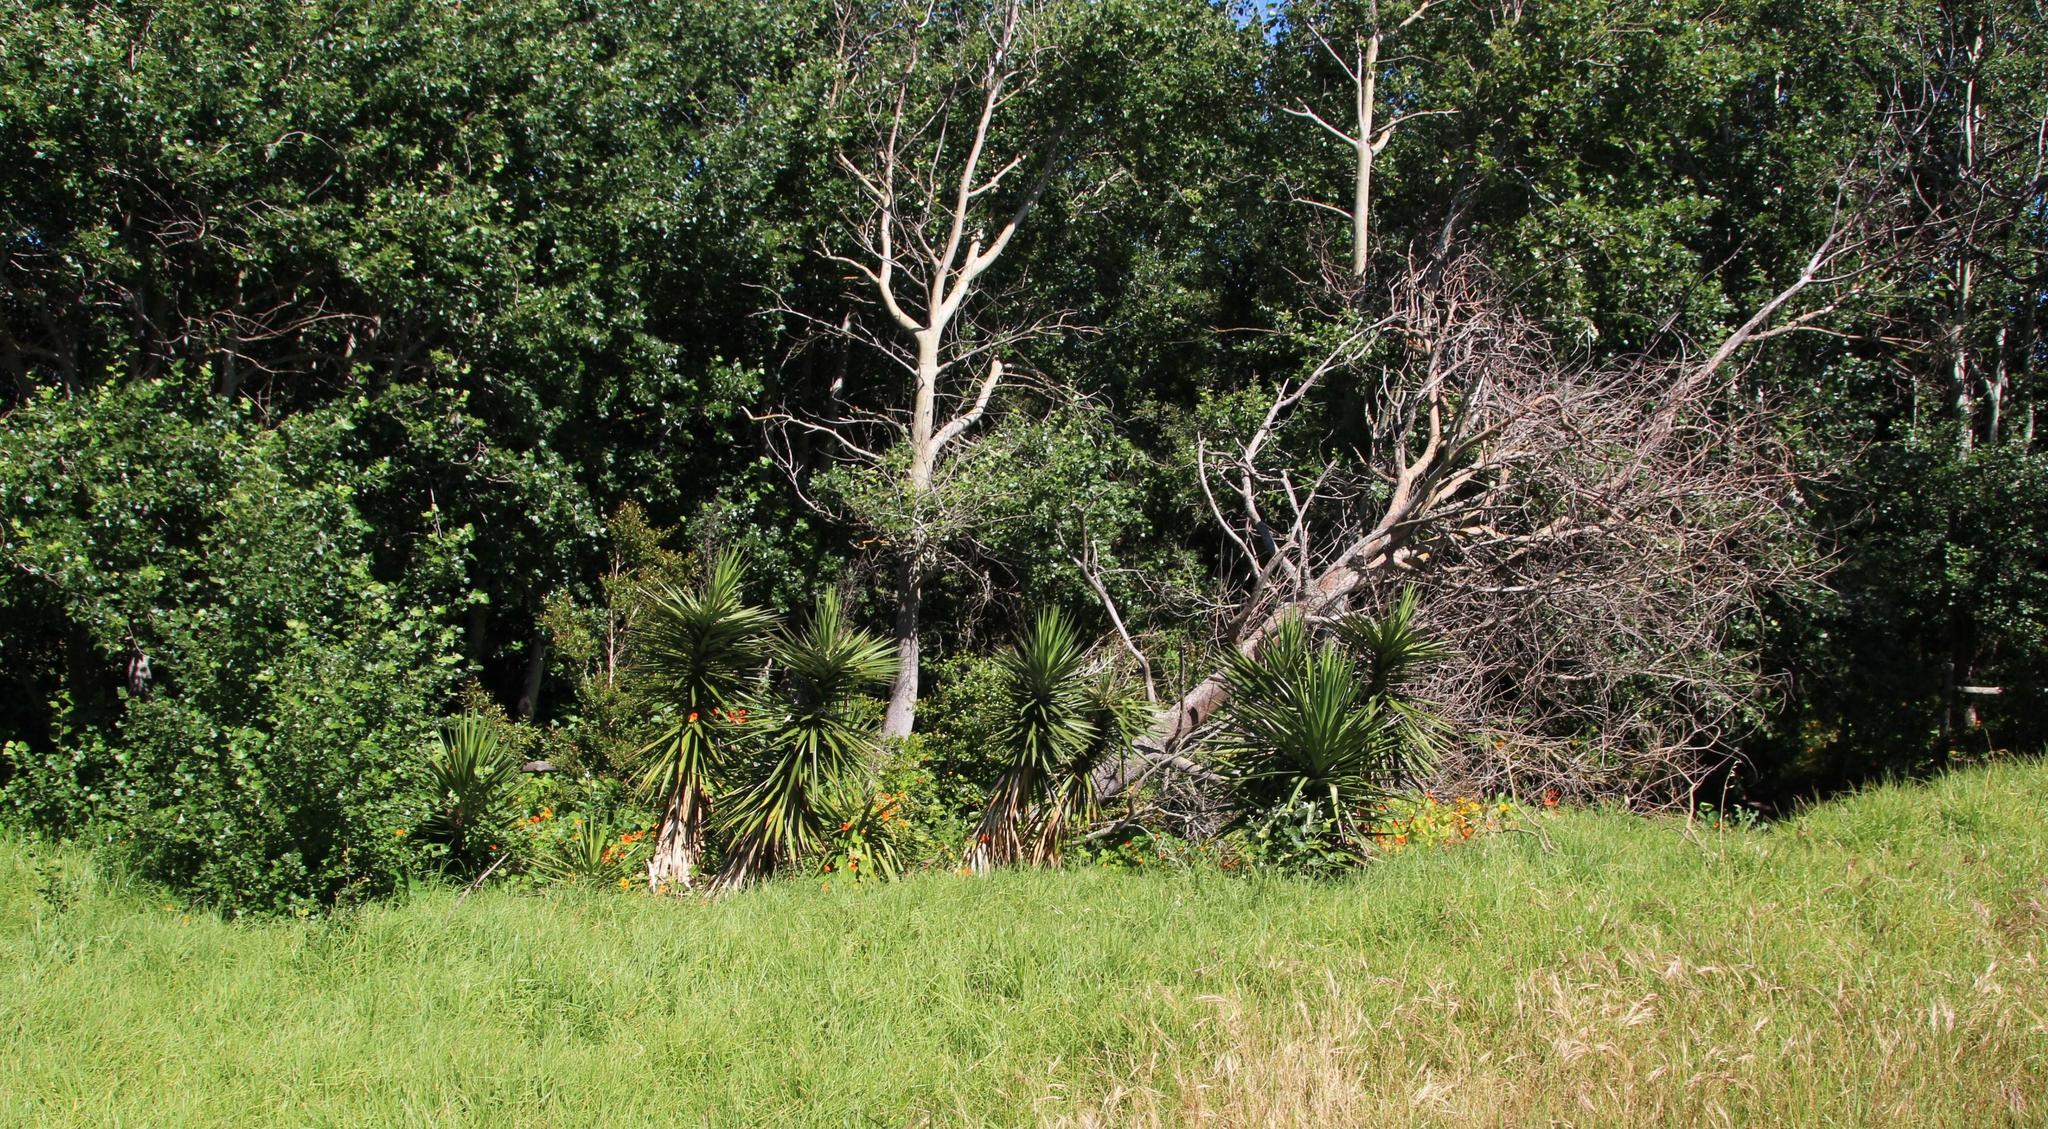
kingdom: Plantae
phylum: Tracheophyta
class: Liliopsida
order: Asparagales
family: Asparagaceae
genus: Yucca
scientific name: Yucca aloifolia
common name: Aloe yucca
